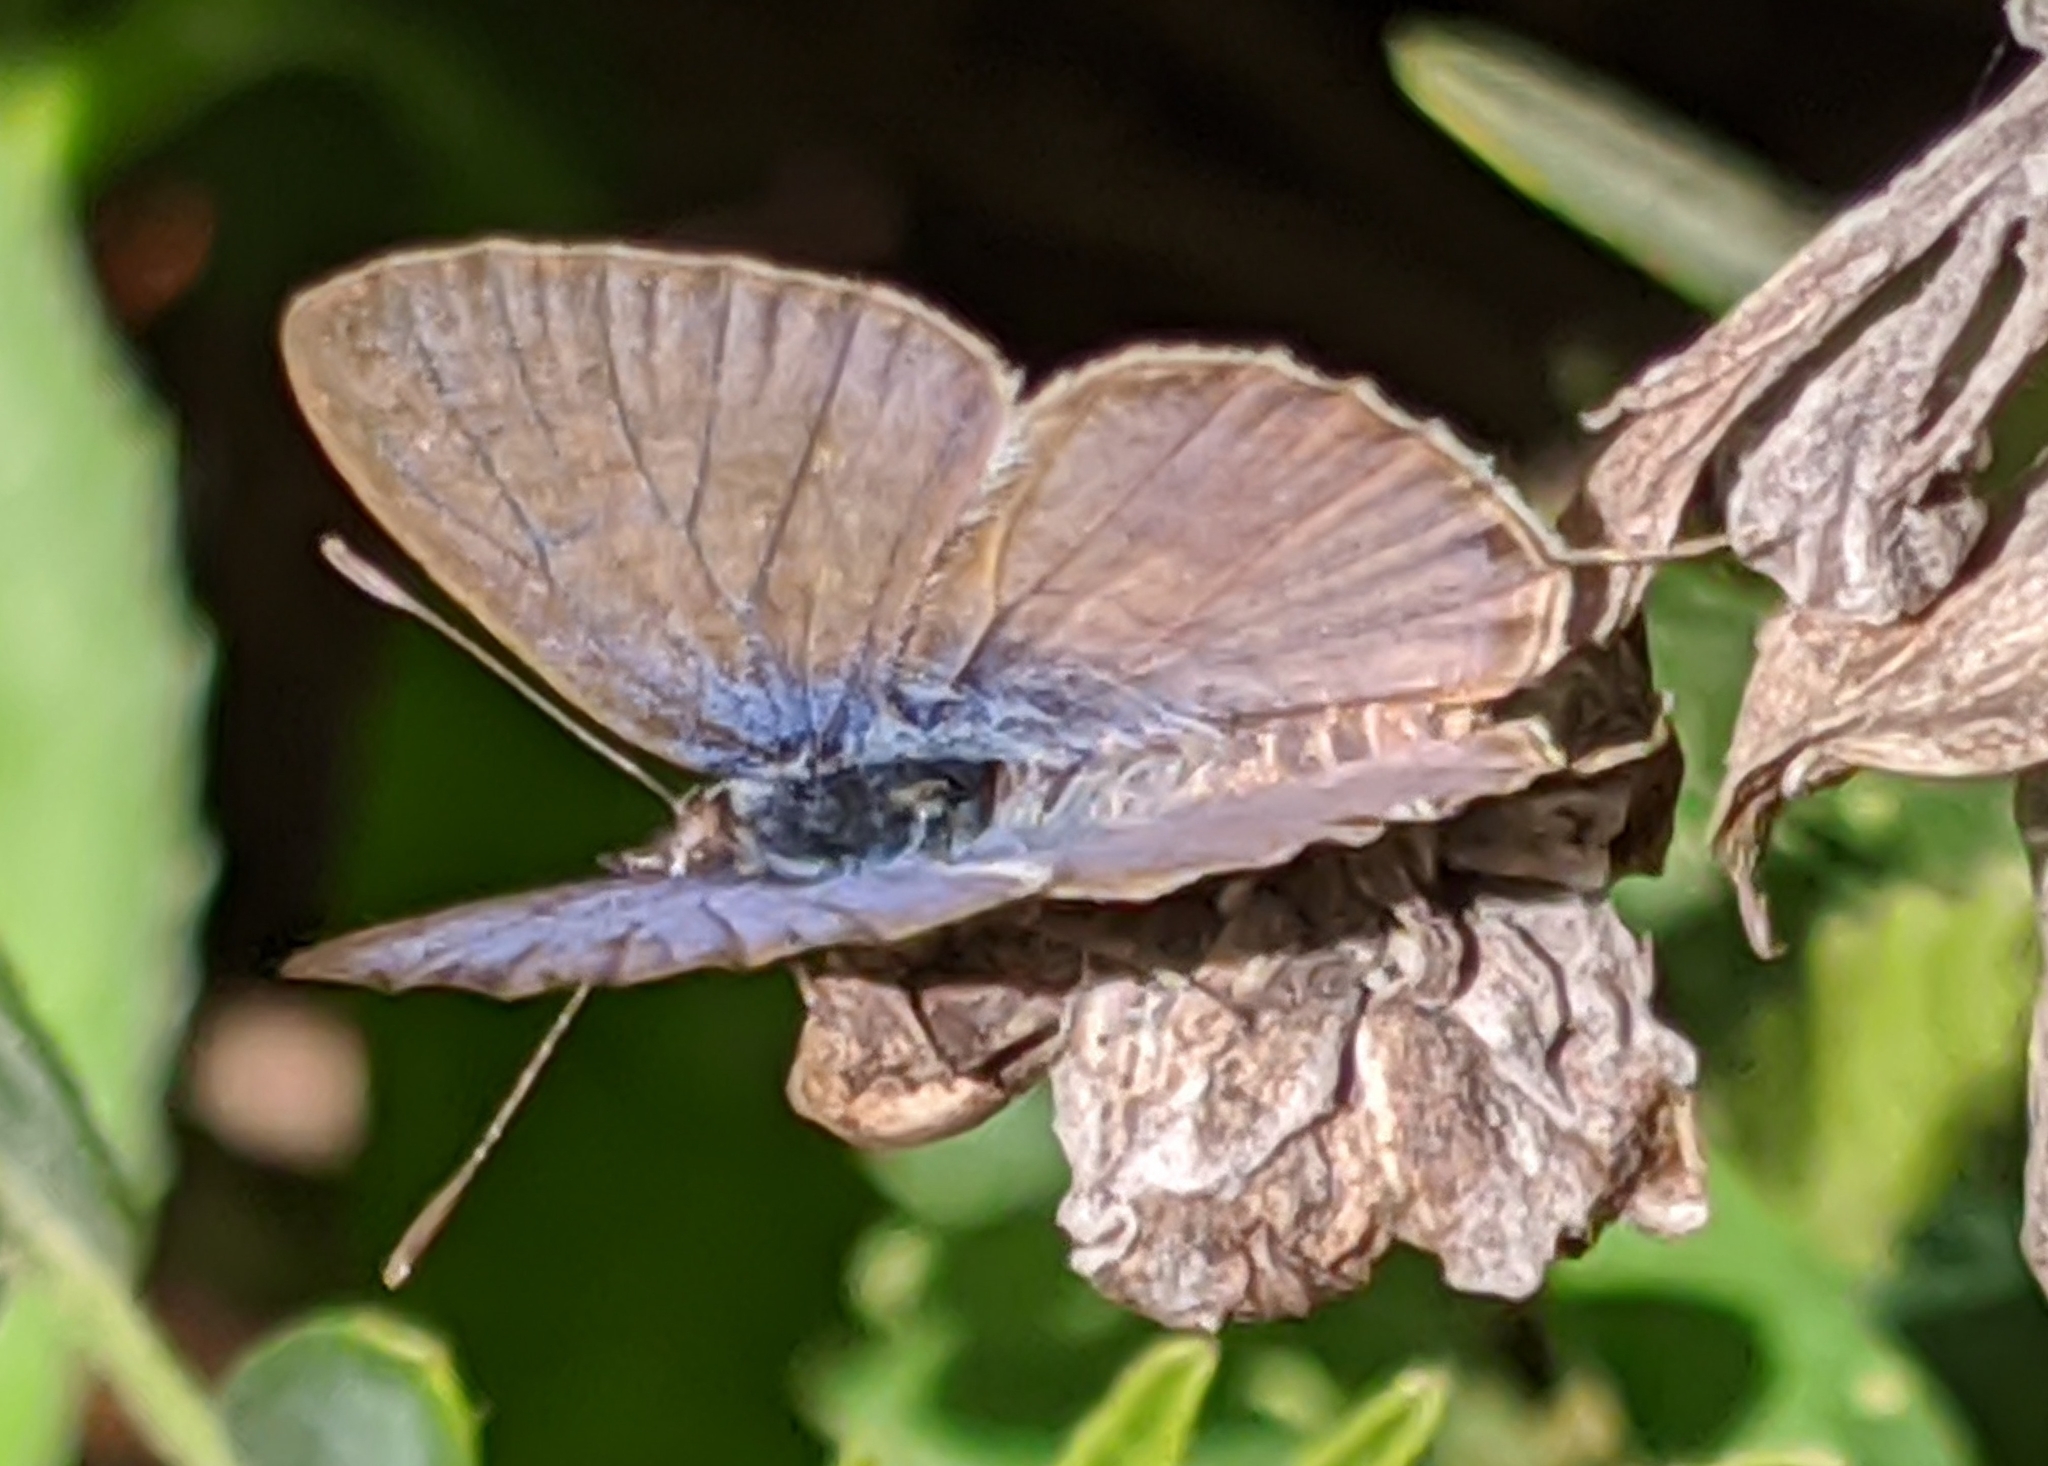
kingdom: Animalia
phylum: Arthropoda
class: Insecta
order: Lepidoptera
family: Lycaenidae
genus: Leptotes
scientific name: Leptotes
